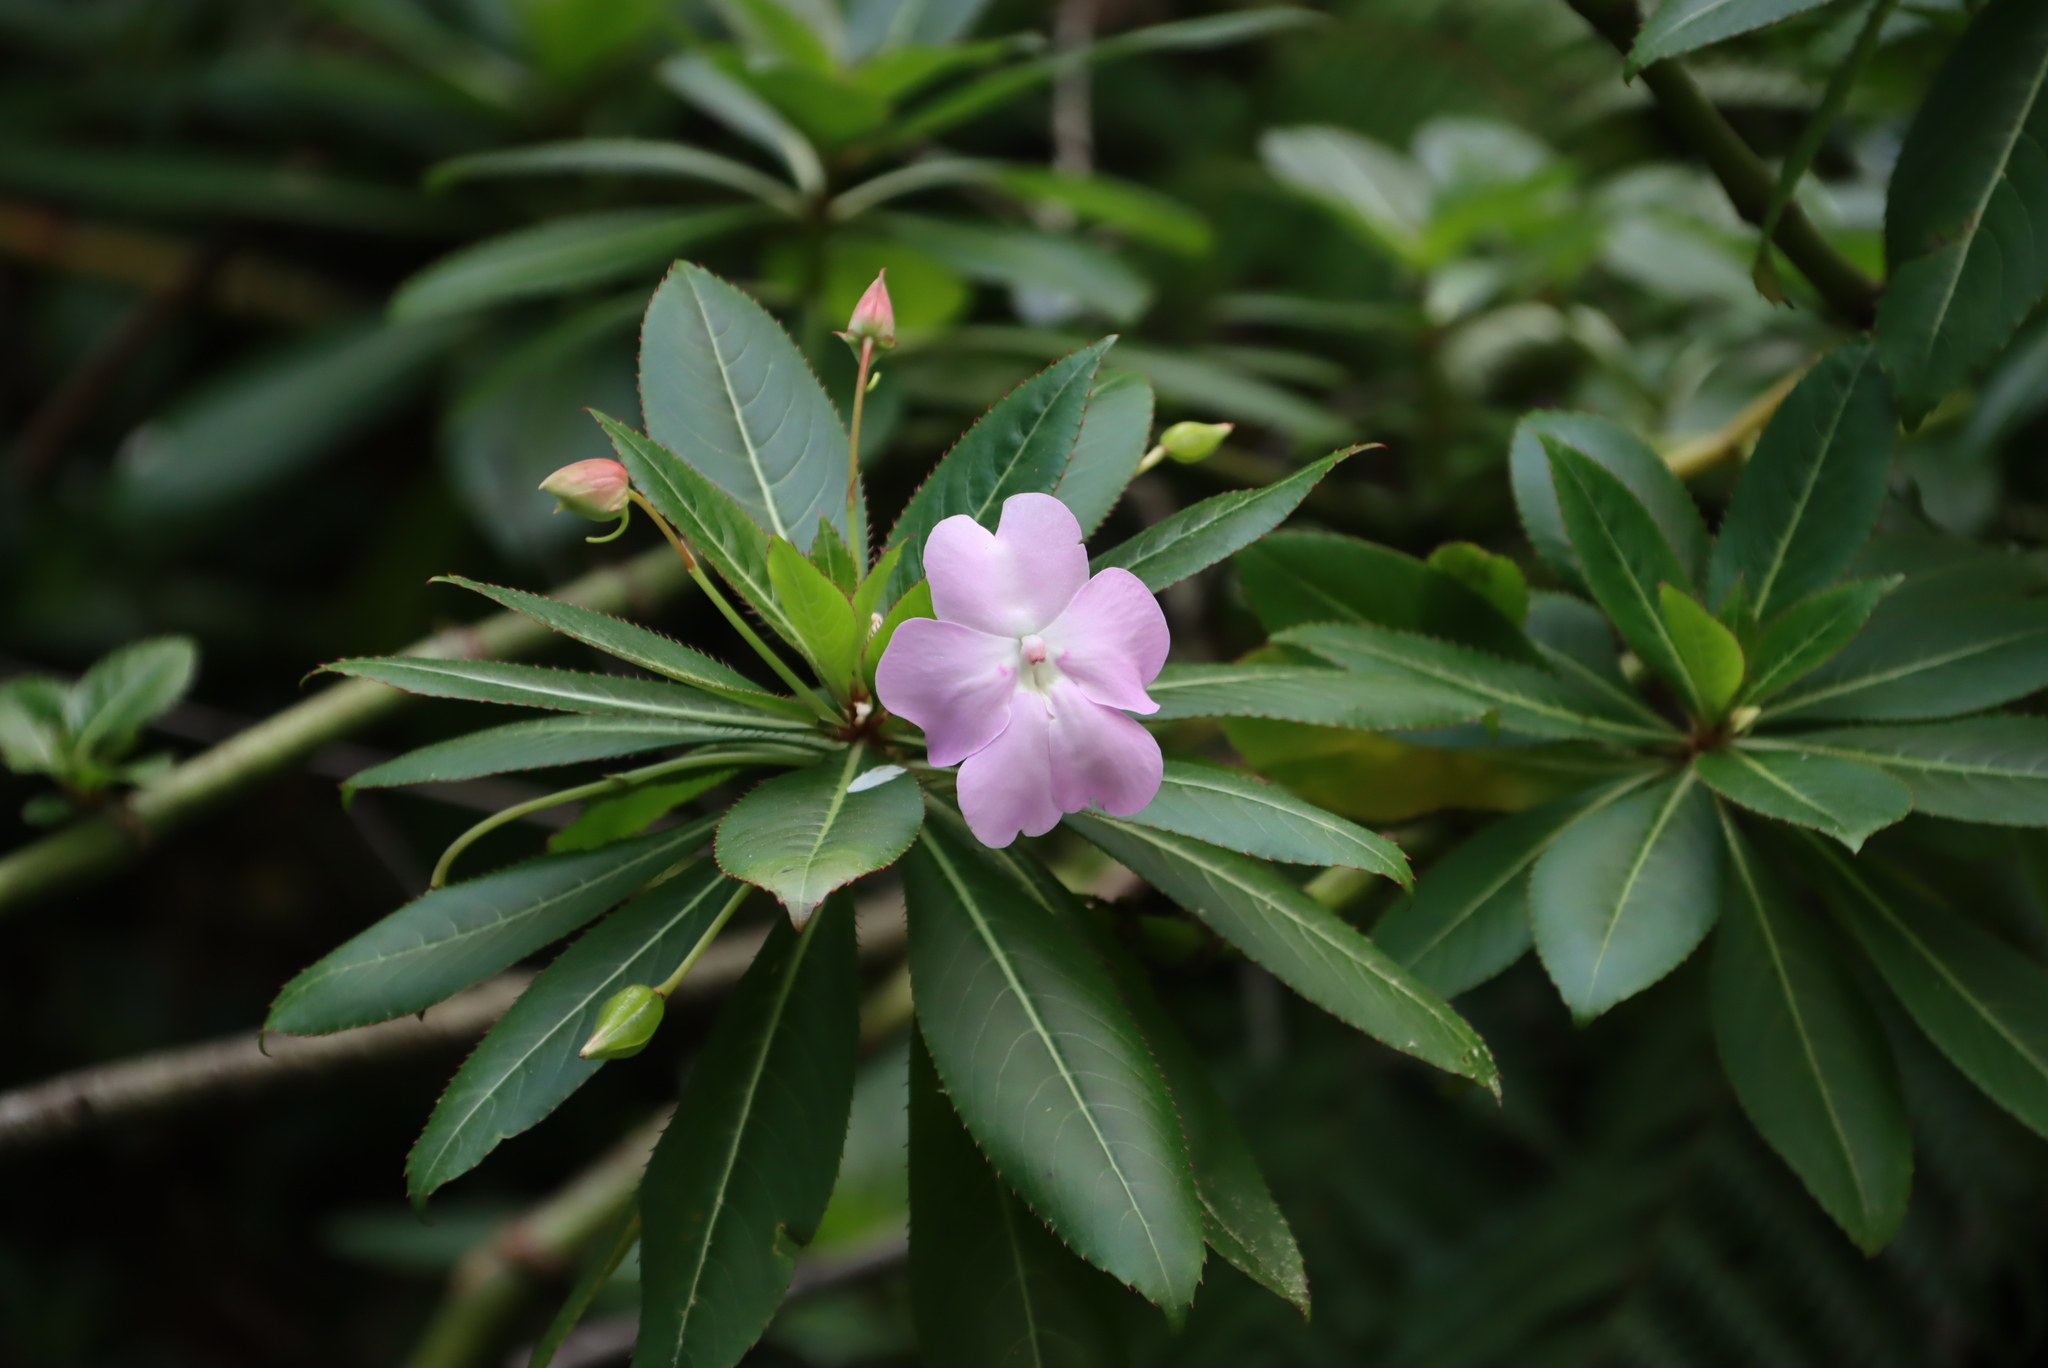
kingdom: Plantae
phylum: Tracheophyta
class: Magnoliopsida
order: Ericales
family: Balsaminaceae
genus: Impatiens
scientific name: Impatiens sodenii
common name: Oliver's touch-me-not
